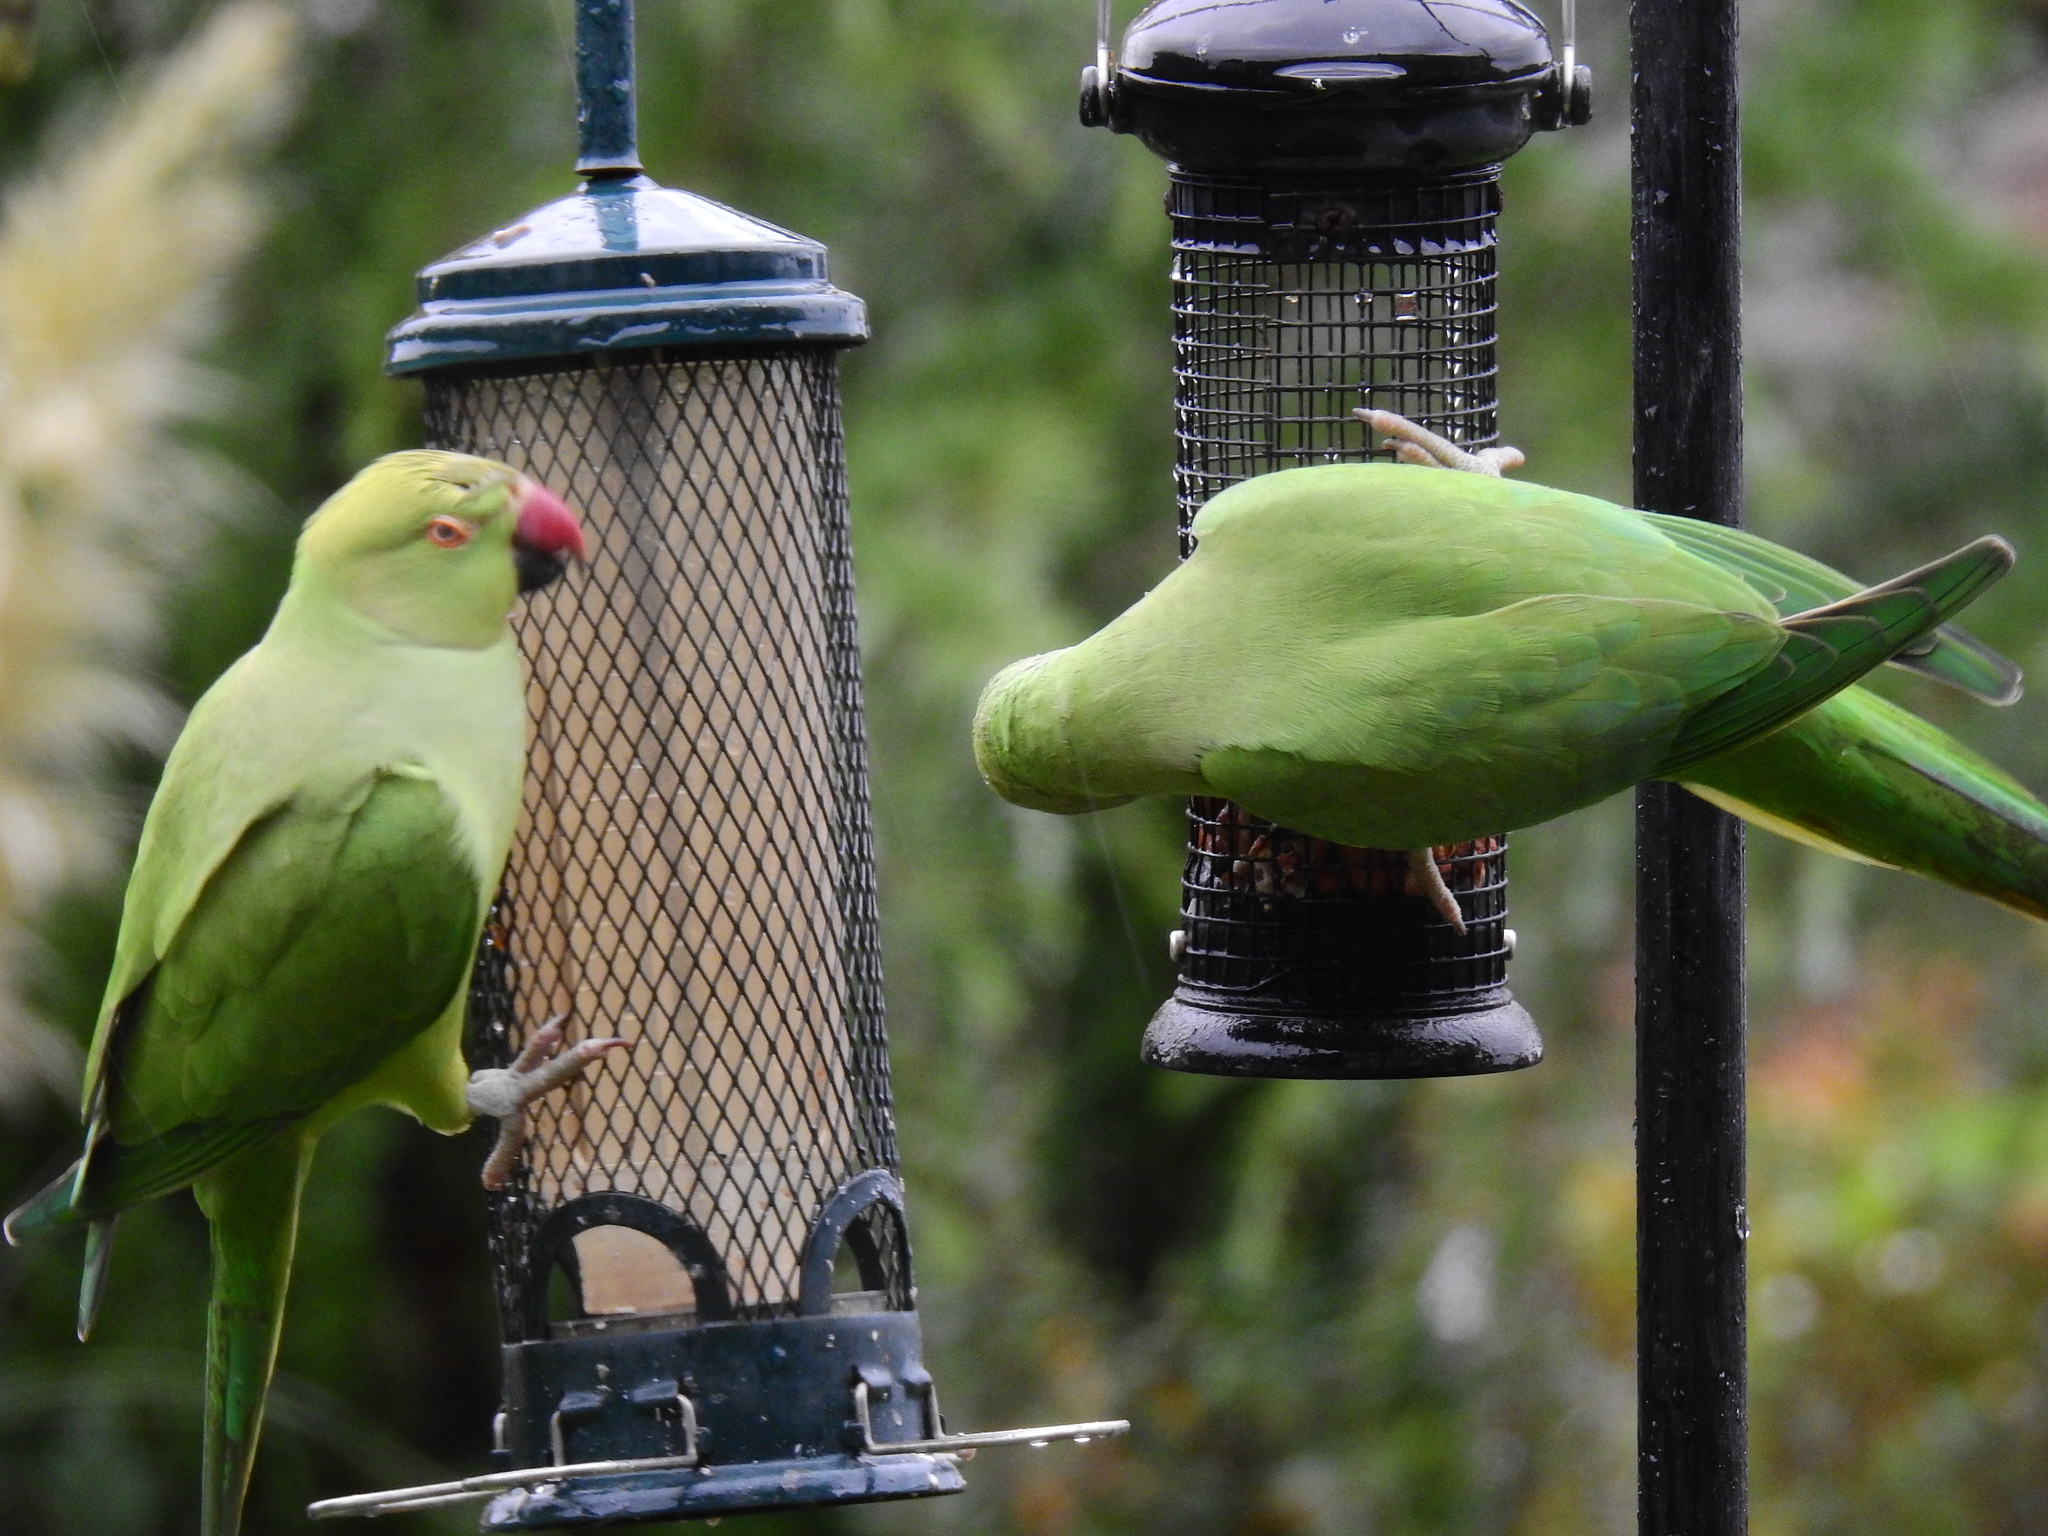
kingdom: Animalia
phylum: Chordata
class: Aves
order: Psittaciformes
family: Psittacidae
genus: Psittacula
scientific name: Psittacula krameri
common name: Rose-ringed parakeet
